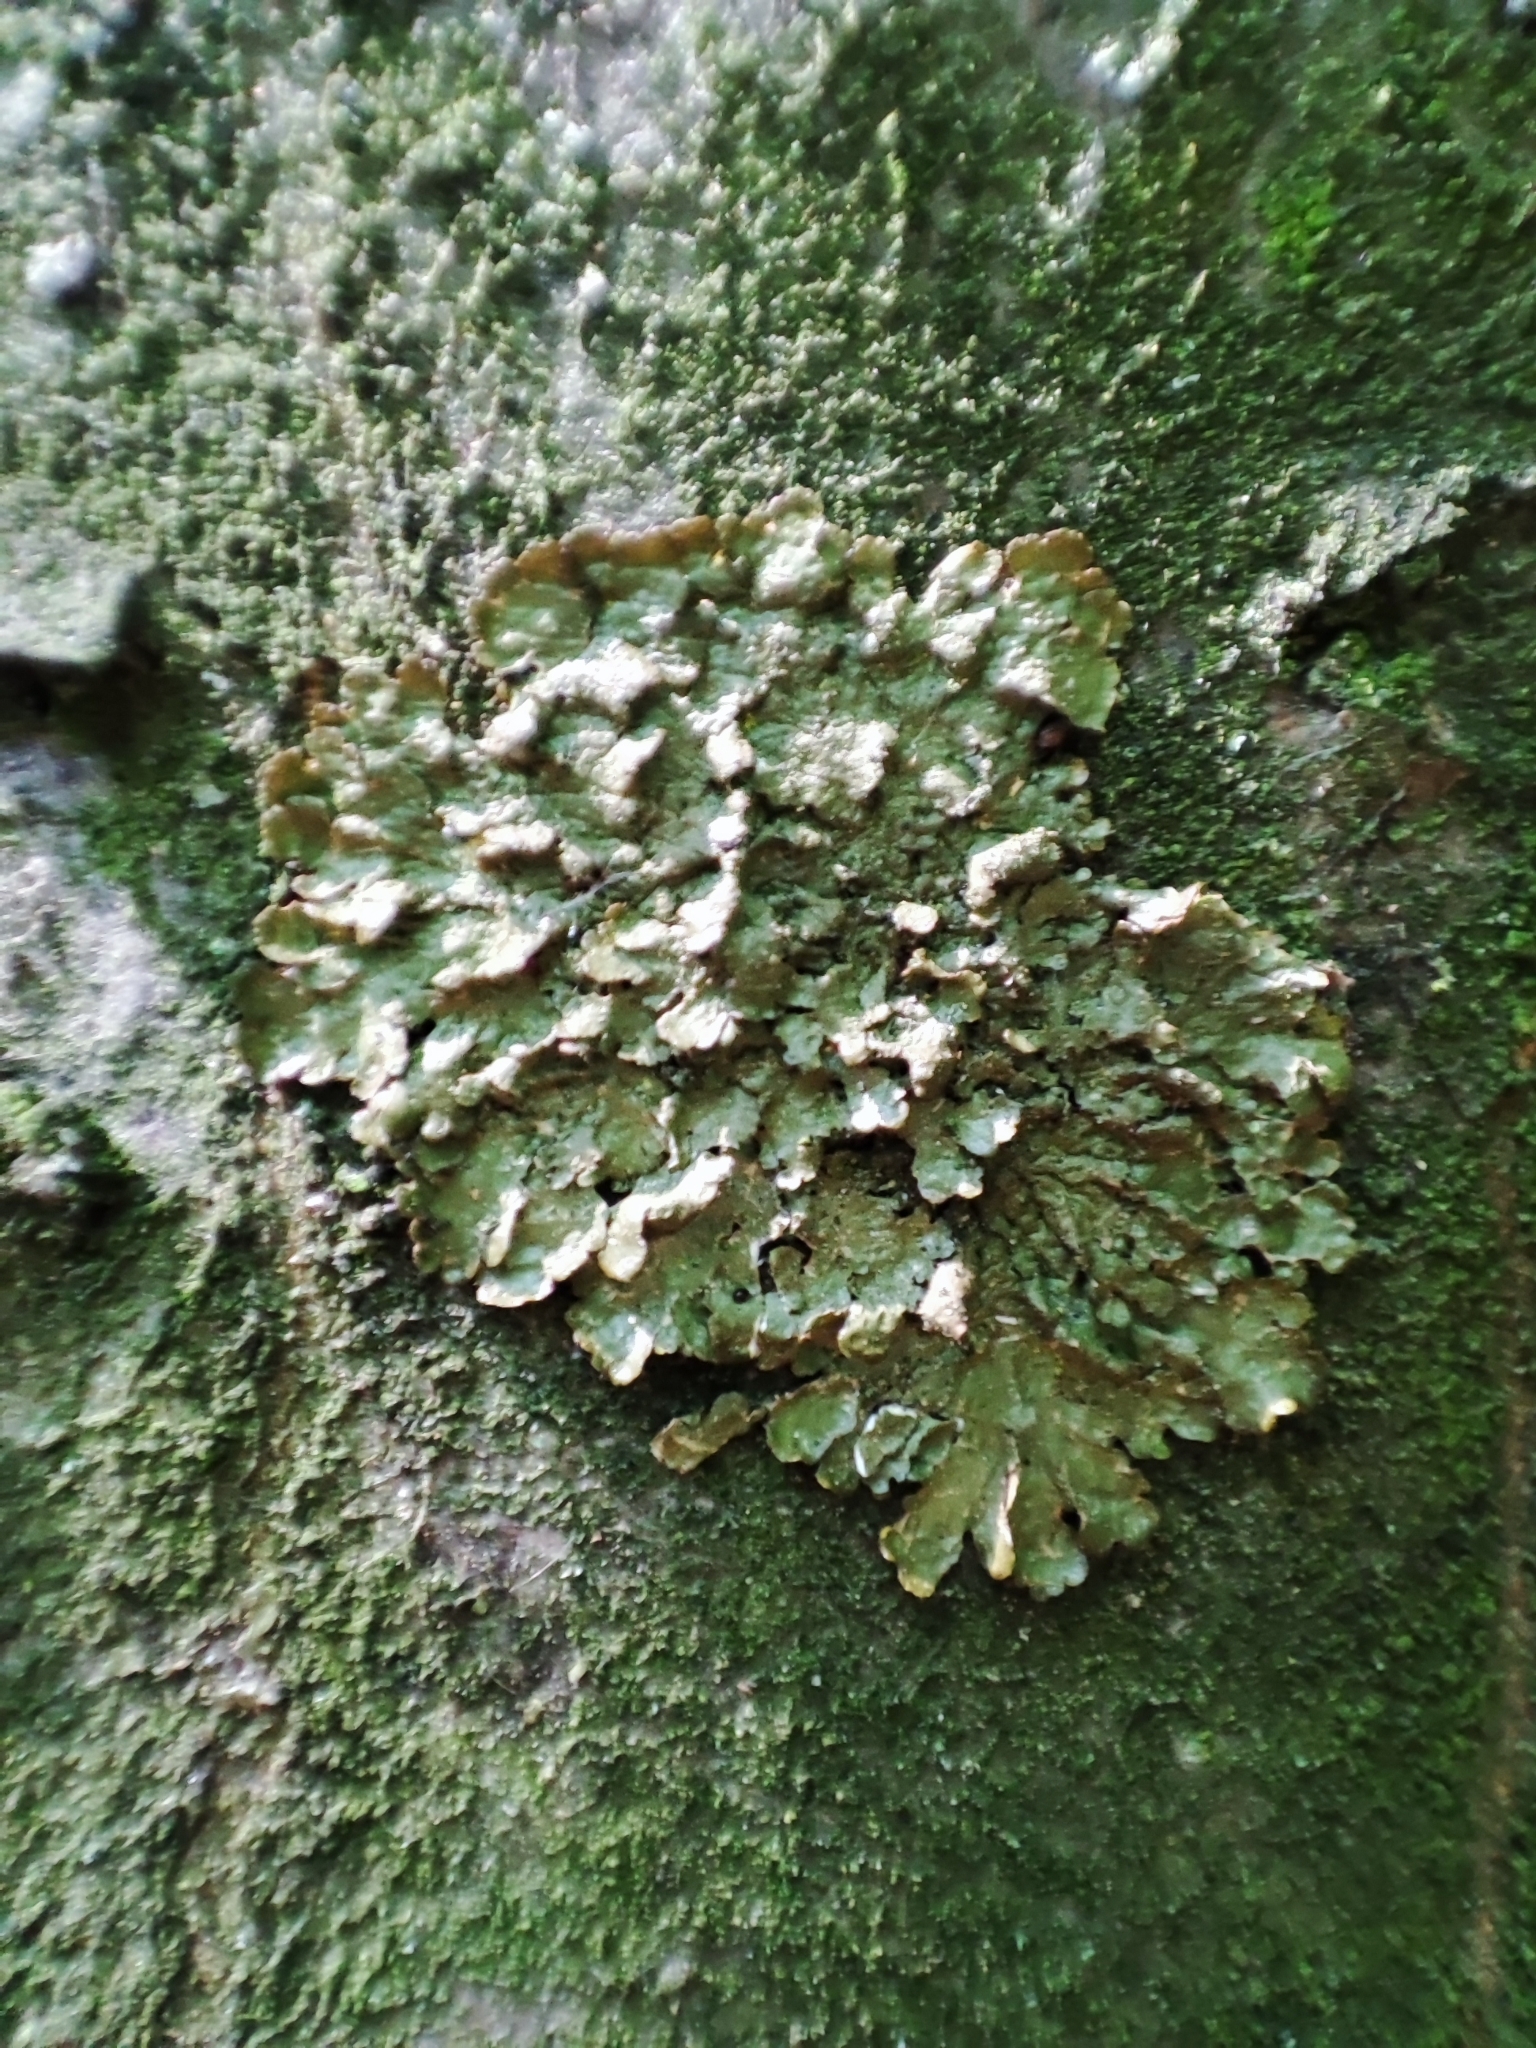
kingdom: Fungi
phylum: Ascomycota
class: Lecanoromycetes
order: Lecanorales
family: Parmeliaceae
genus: Melanelixia
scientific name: Melanelixia glabratula
